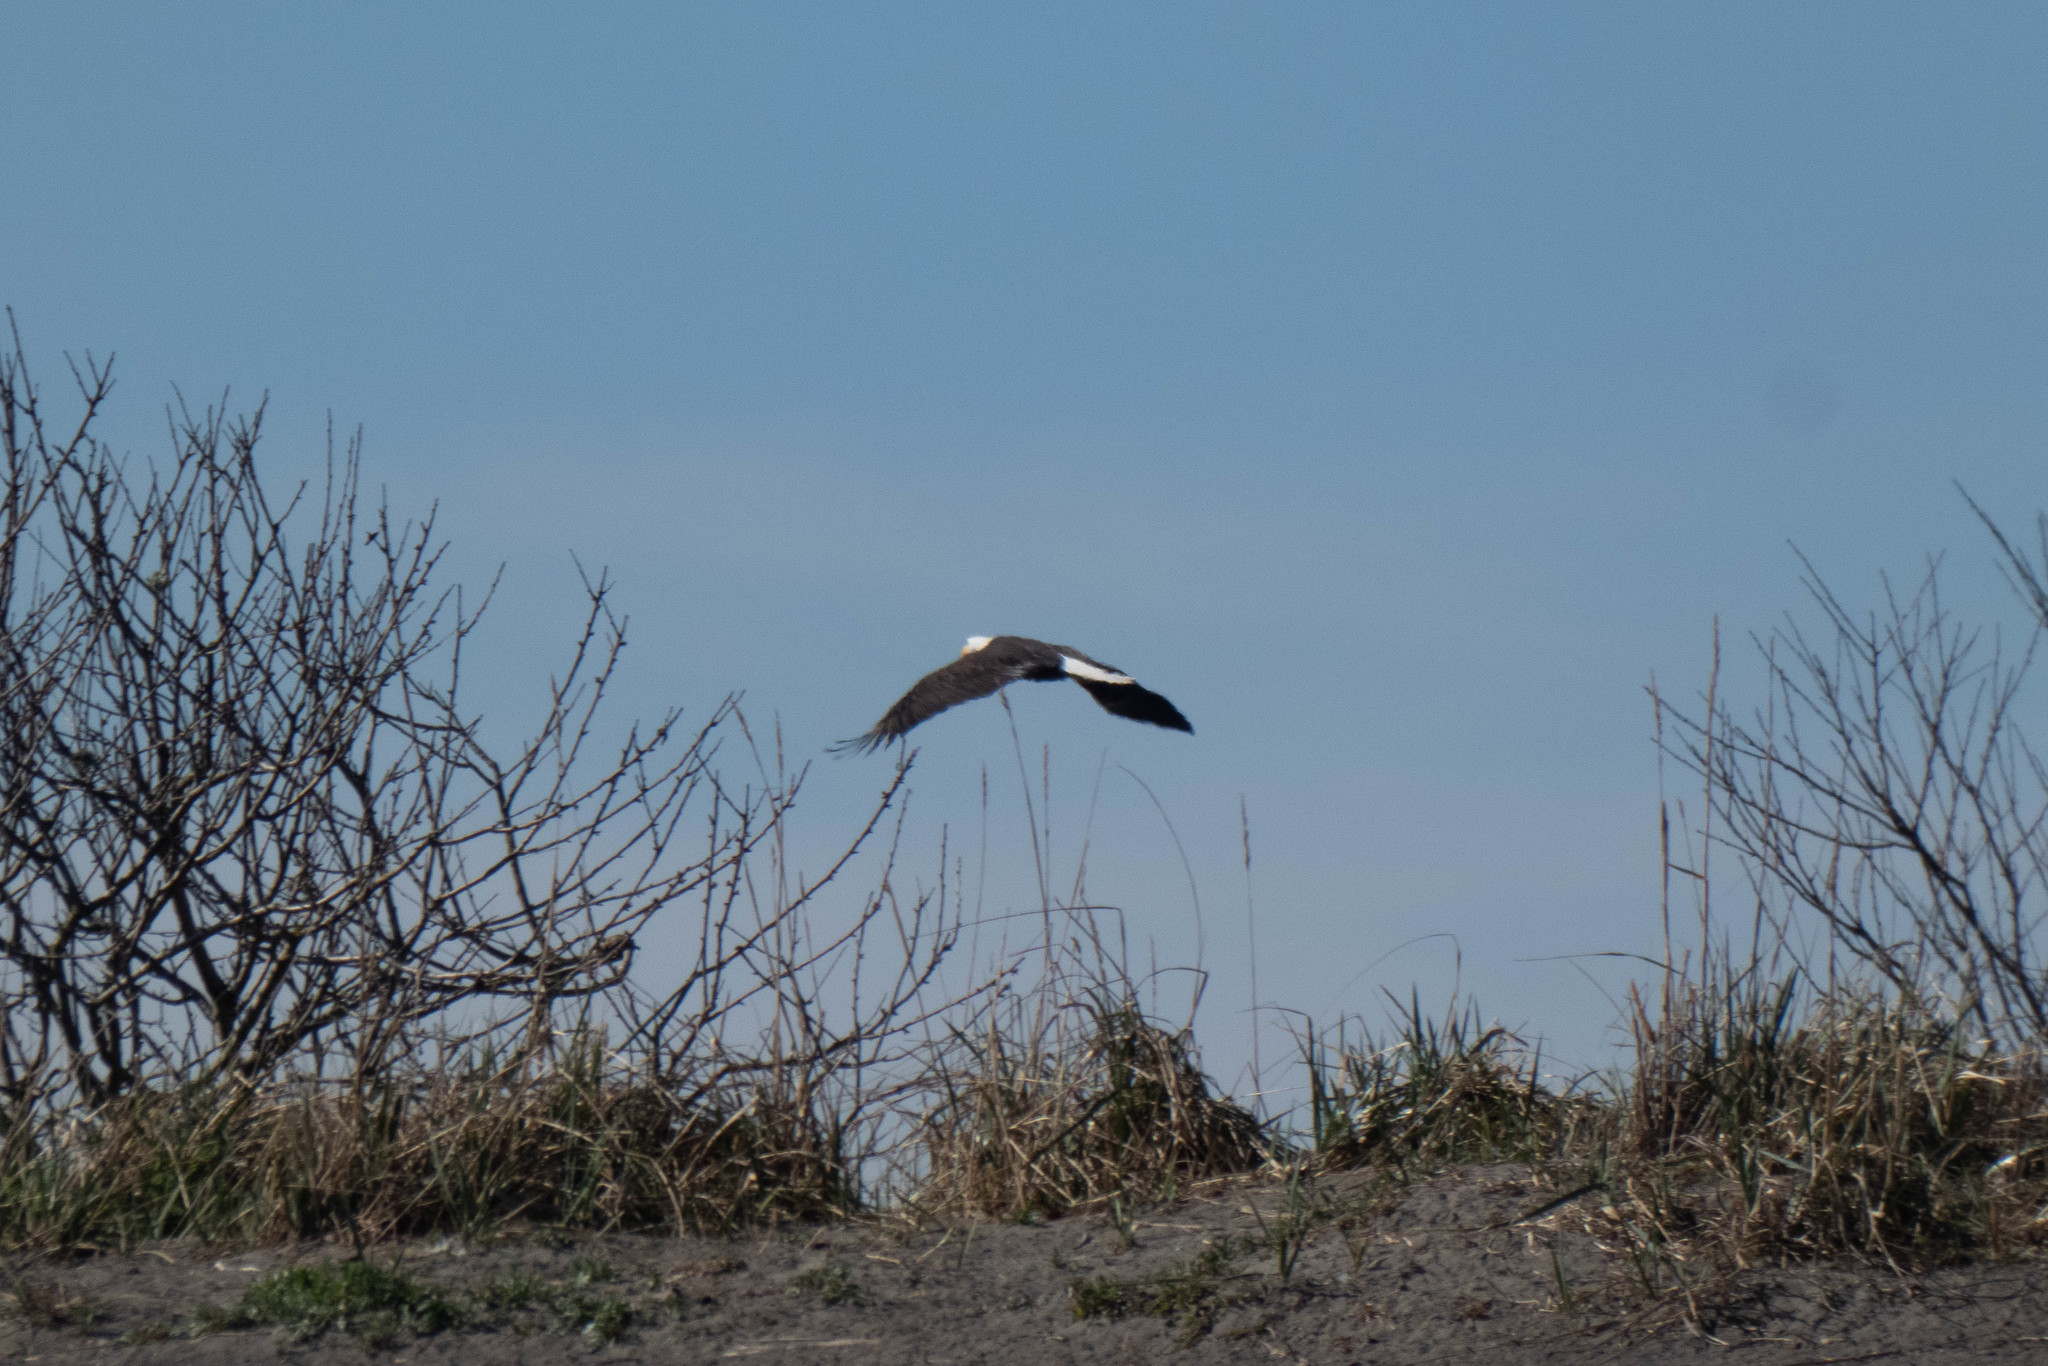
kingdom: Animalia
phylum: Chordata
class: Aves
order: Accipitriformes
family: Accipitridae
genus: Haliaeetus
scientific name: Haliaeetus leucocephalus
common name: Bald eagle
